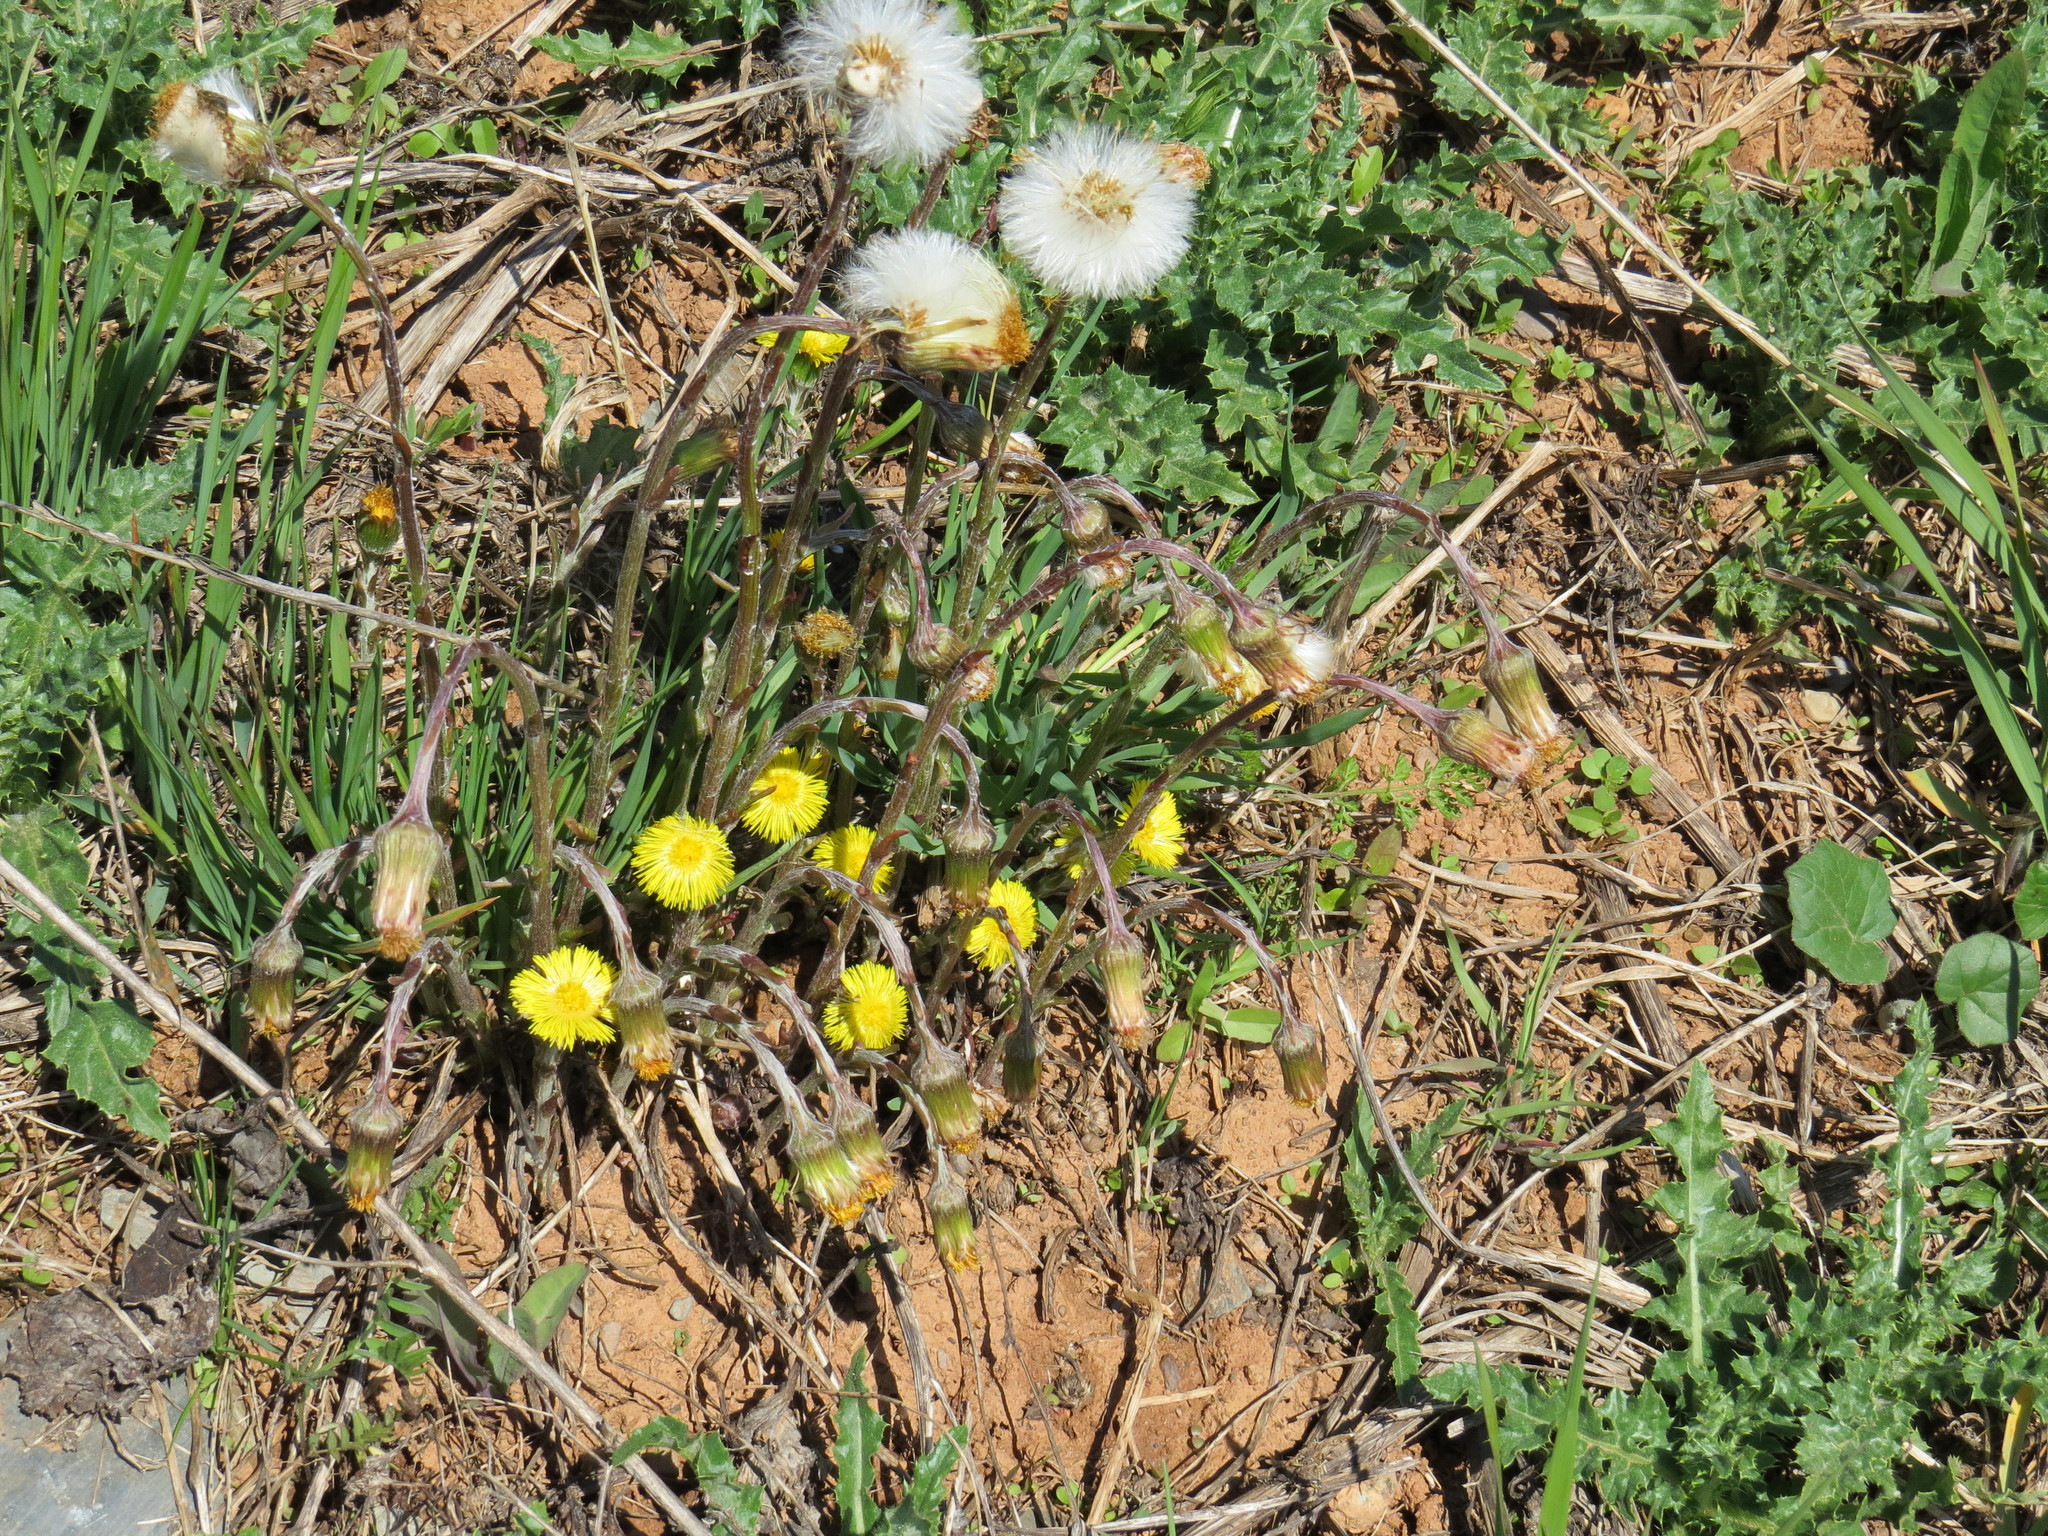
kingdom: Plantae
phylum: Tracheophyta
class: Magnoliopsida
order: Asterales
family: Asteraceae
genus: Tussilago
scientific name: Tussilago farfara
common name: Coltsfoot
